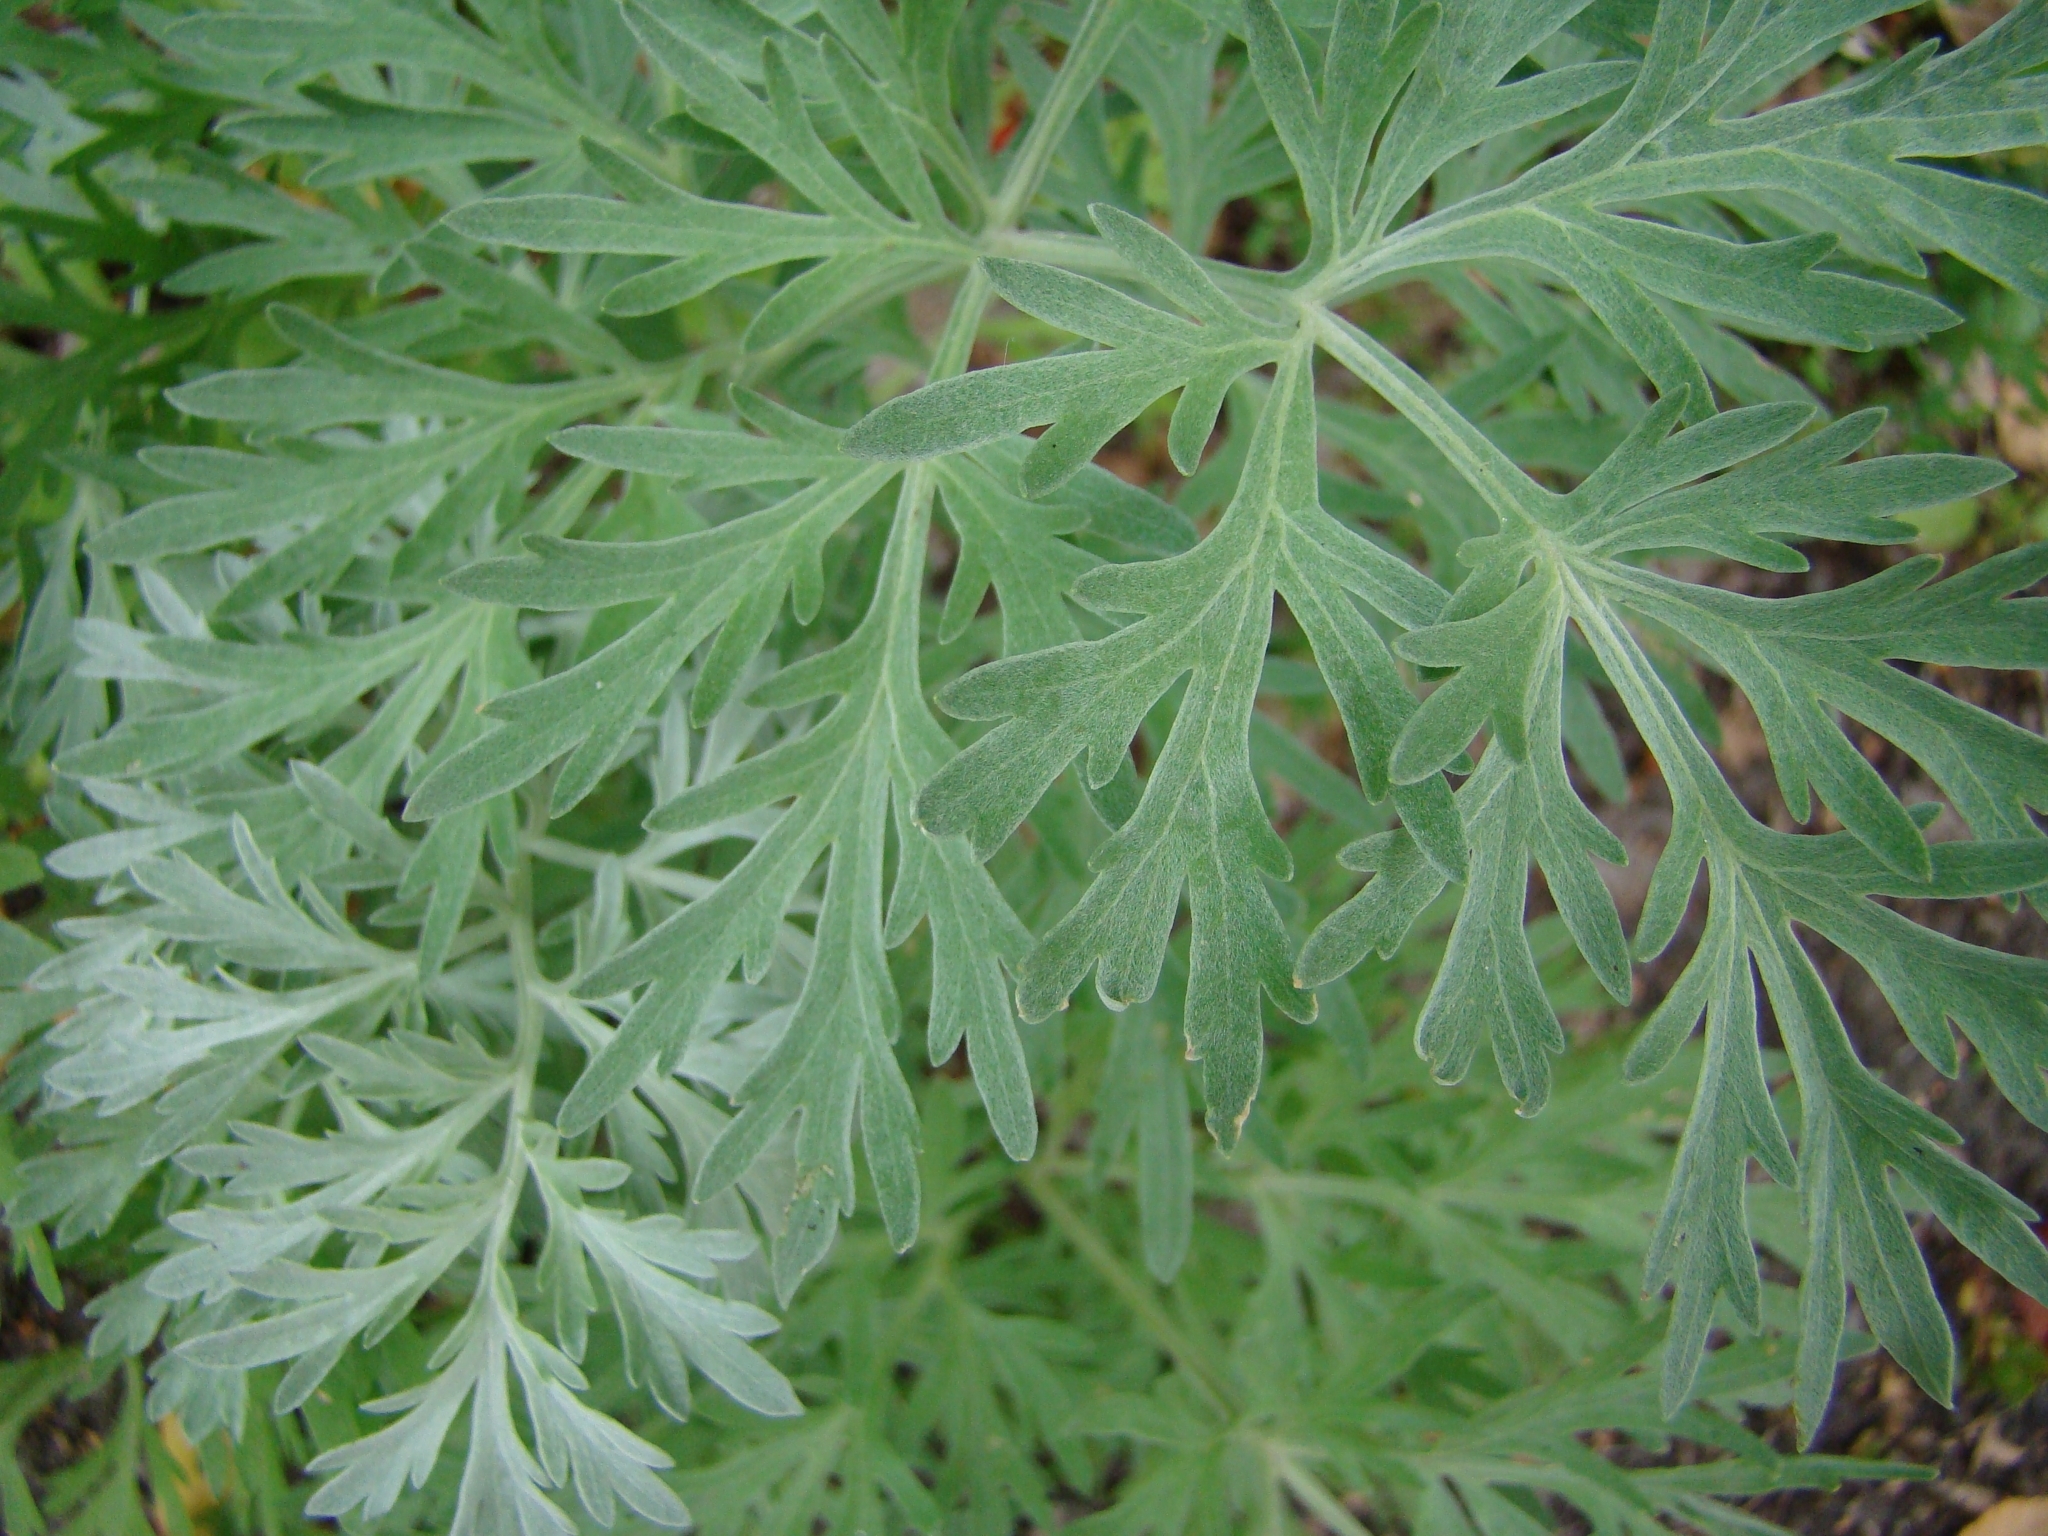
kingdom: Plantae
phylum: Tracheophyta
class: Magnoliopsida
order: Asterales
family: Asteraceae
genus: Artemisia
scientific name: Artemisia absinthium
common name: Wormwood
